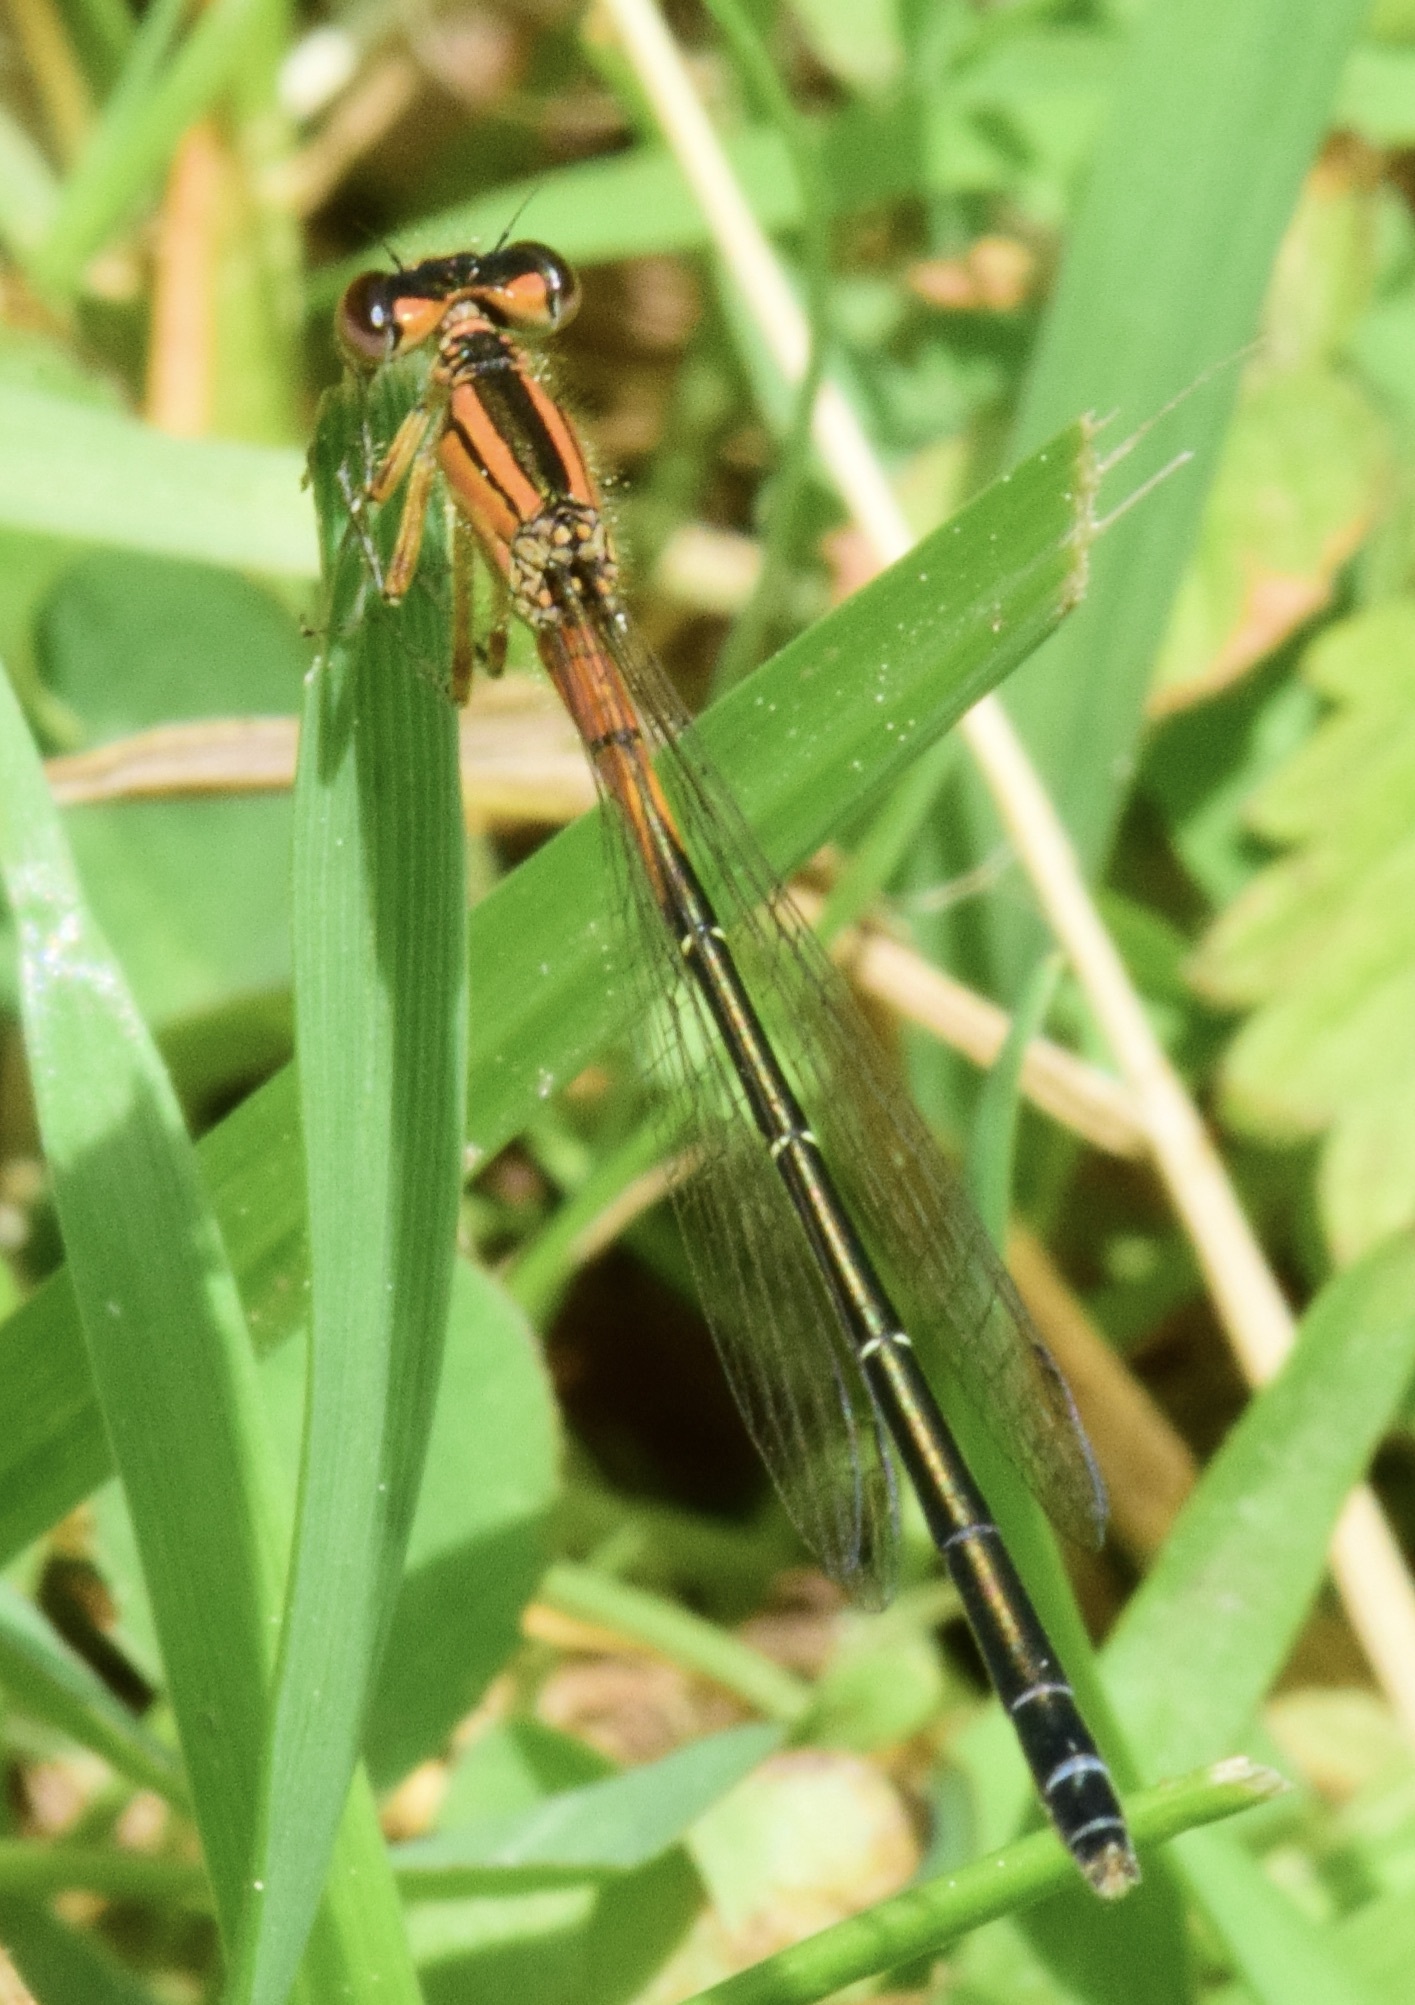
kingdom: Animalia
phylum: Arthropoda
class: Insecta
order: Odonata
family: Coenagrionidae
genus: Ischnura
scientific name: Ischnura verticalis
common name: Eastern forktail
